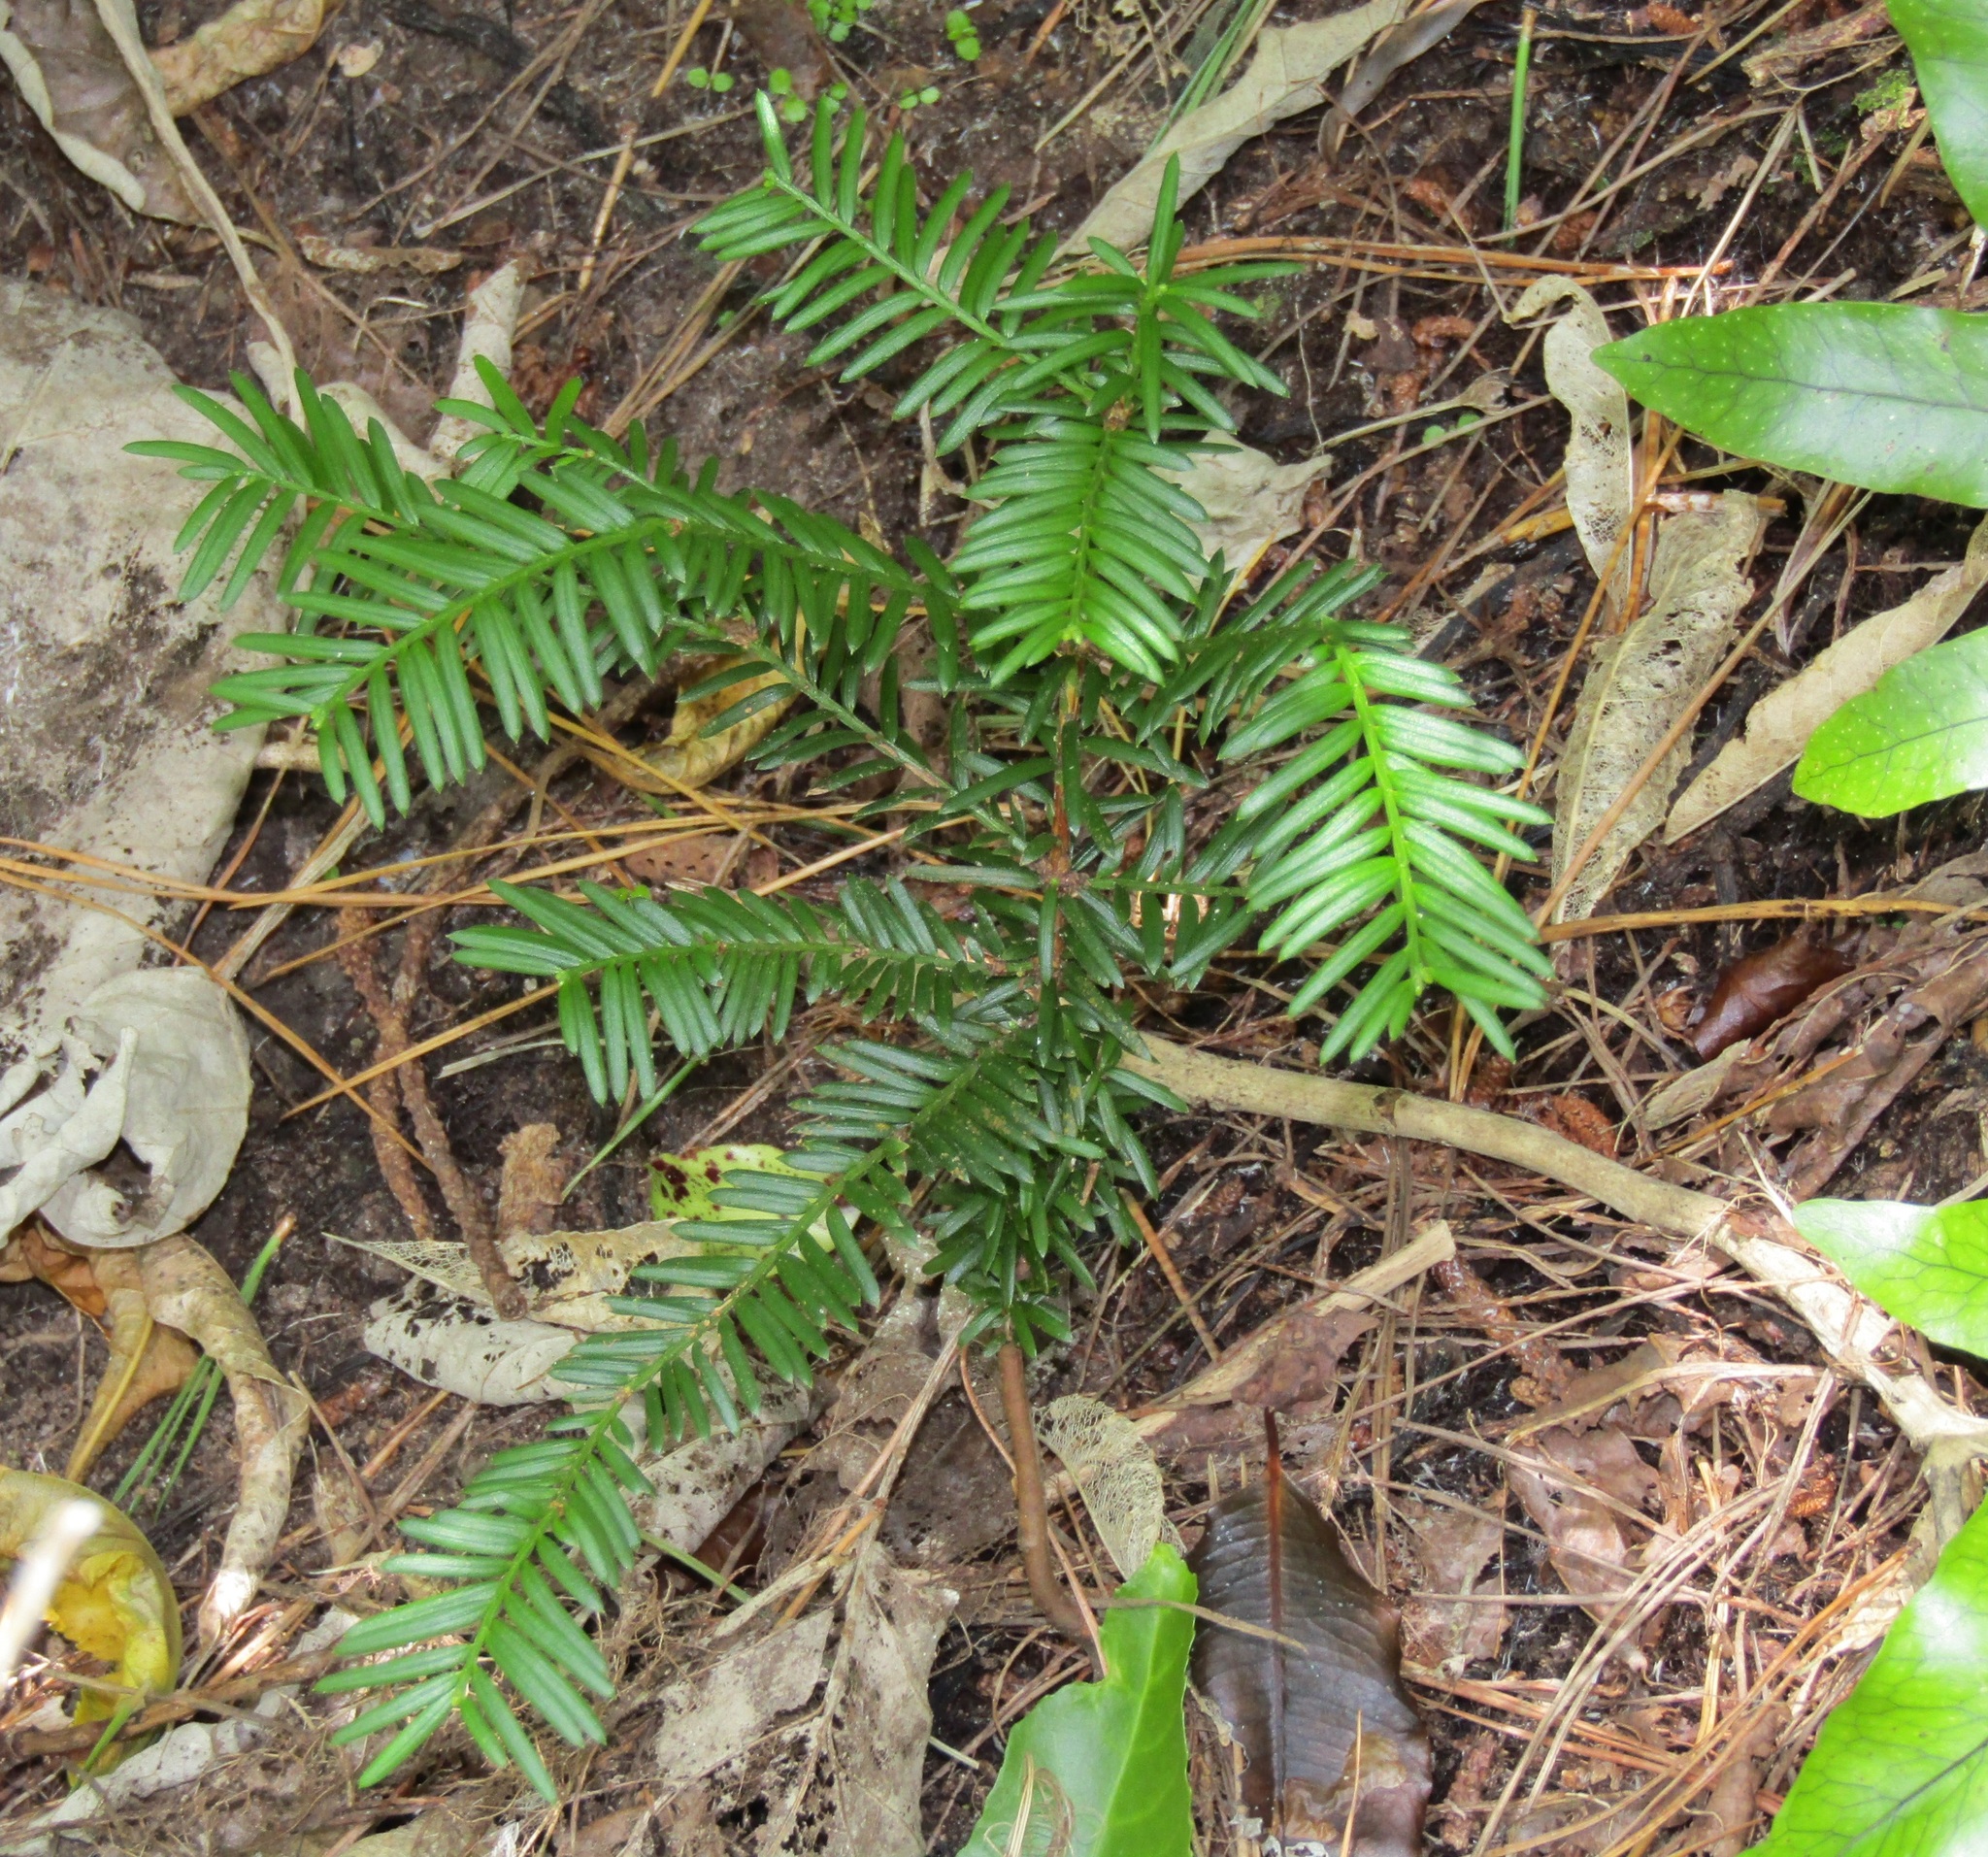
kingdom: Plantae
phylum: Tracheophyta
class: Pinopsida
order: Pinales
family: Taxaceae
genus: Taxus
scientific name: Taxus baccata
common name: Yew
